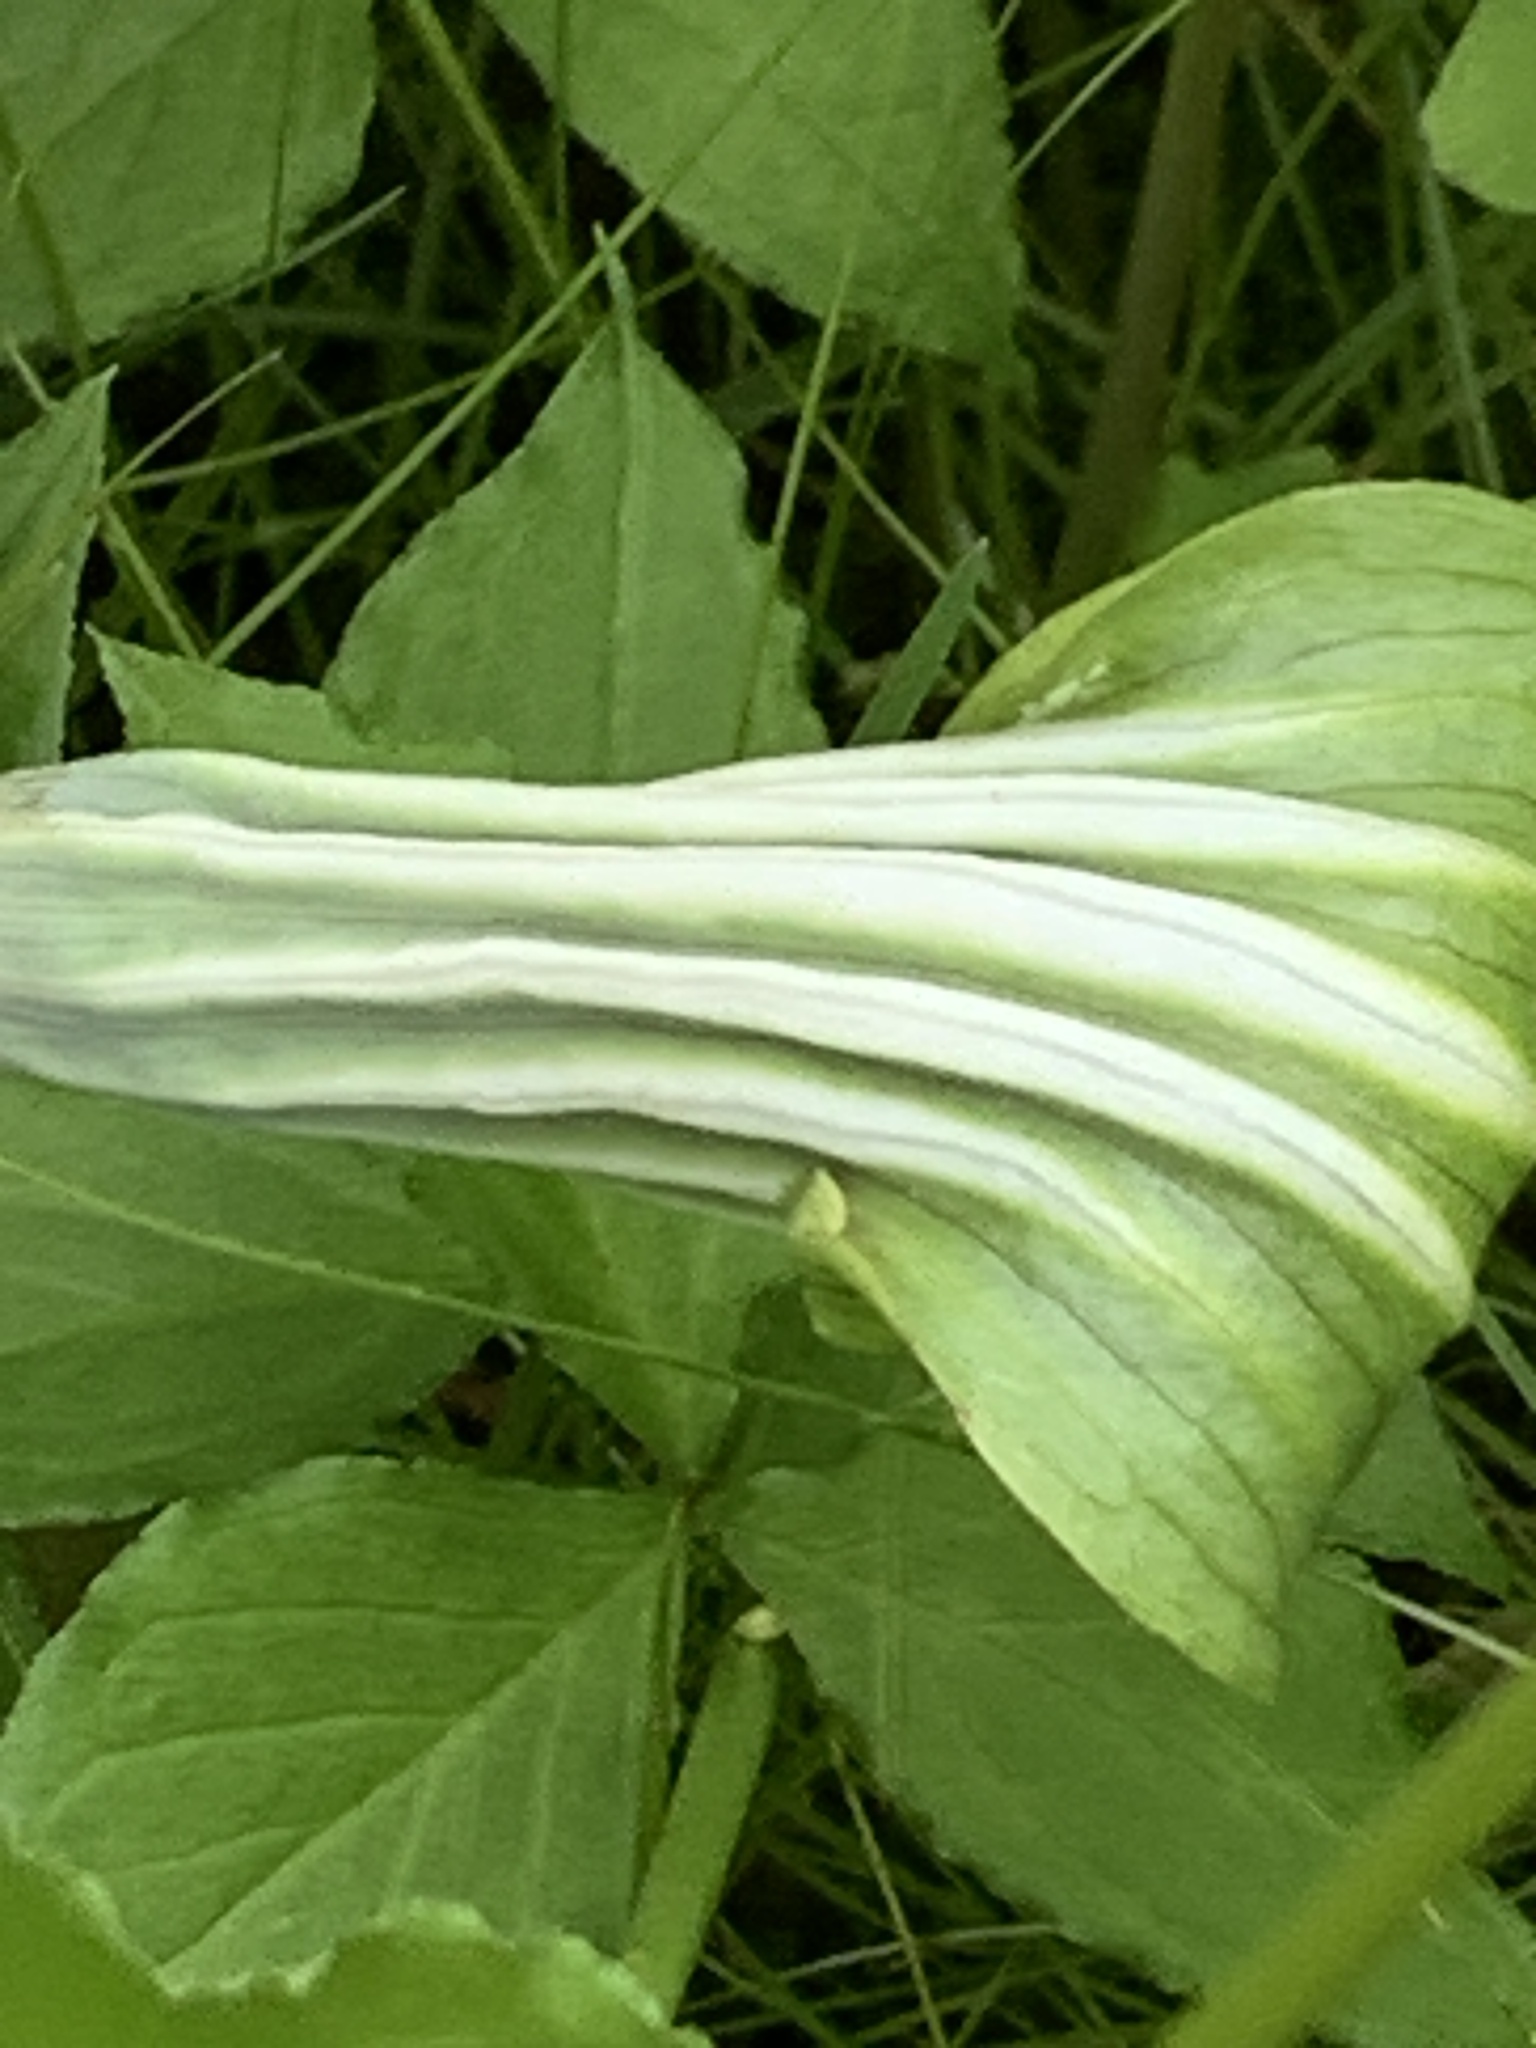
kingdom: Plantae
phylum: Tracheophyta
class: Liliopsida
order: Alismatales
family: Araceae
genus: Arisaema
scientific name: Arisaema stewardsonii
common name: Swamp jack-in-the-pulpit
